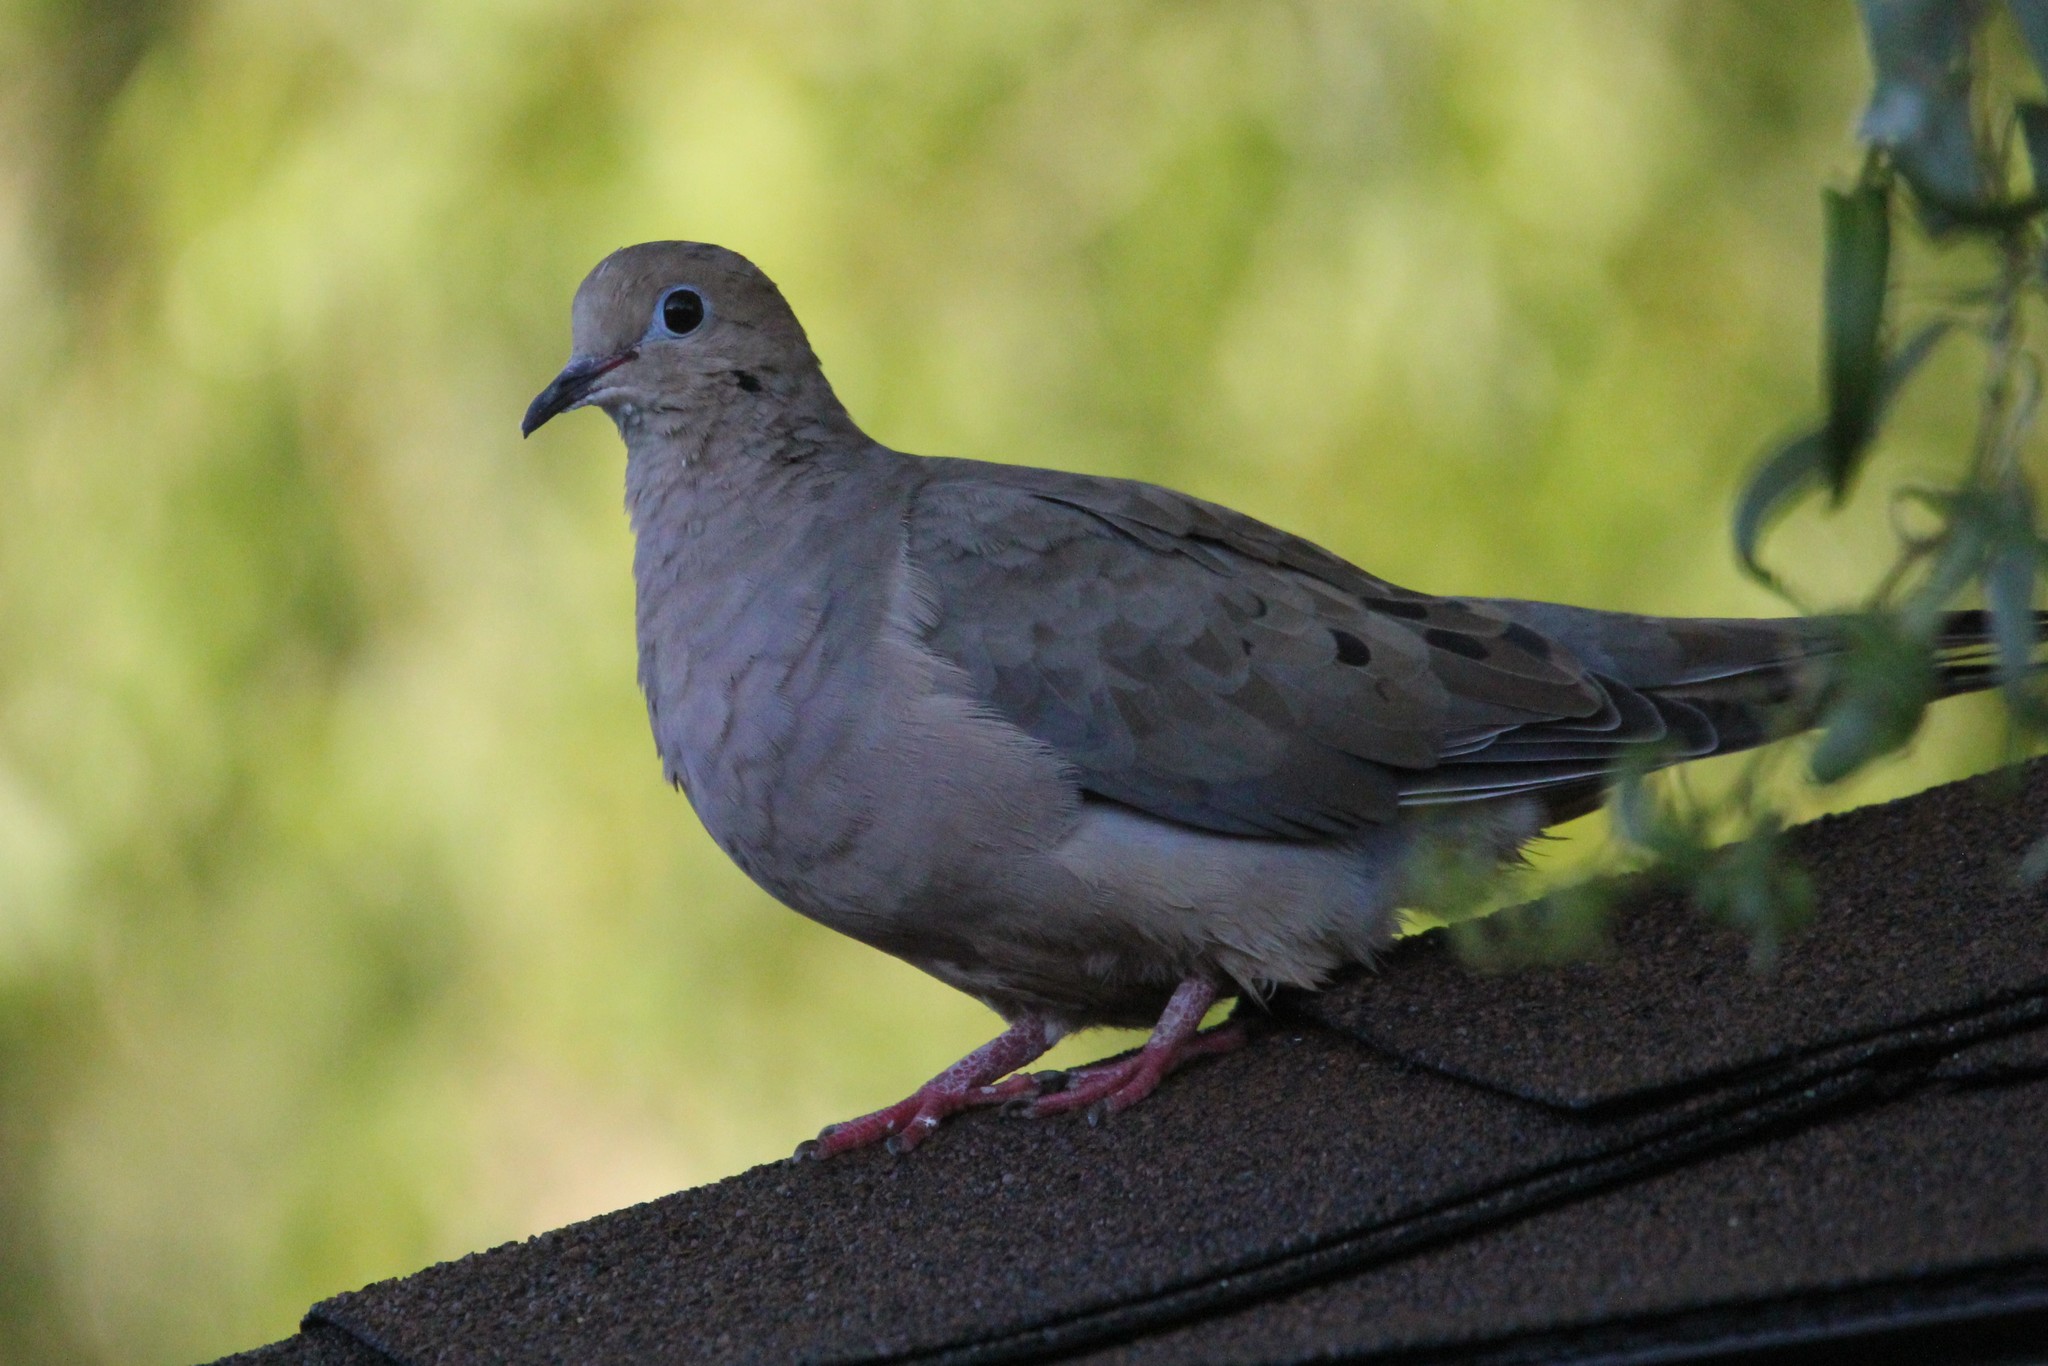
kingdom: Animalia
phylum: Chordata
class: Aves
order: Columbiformes
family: Columbidae
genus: Zenaida
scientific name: Zenaida macroura
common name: Mourning dove
